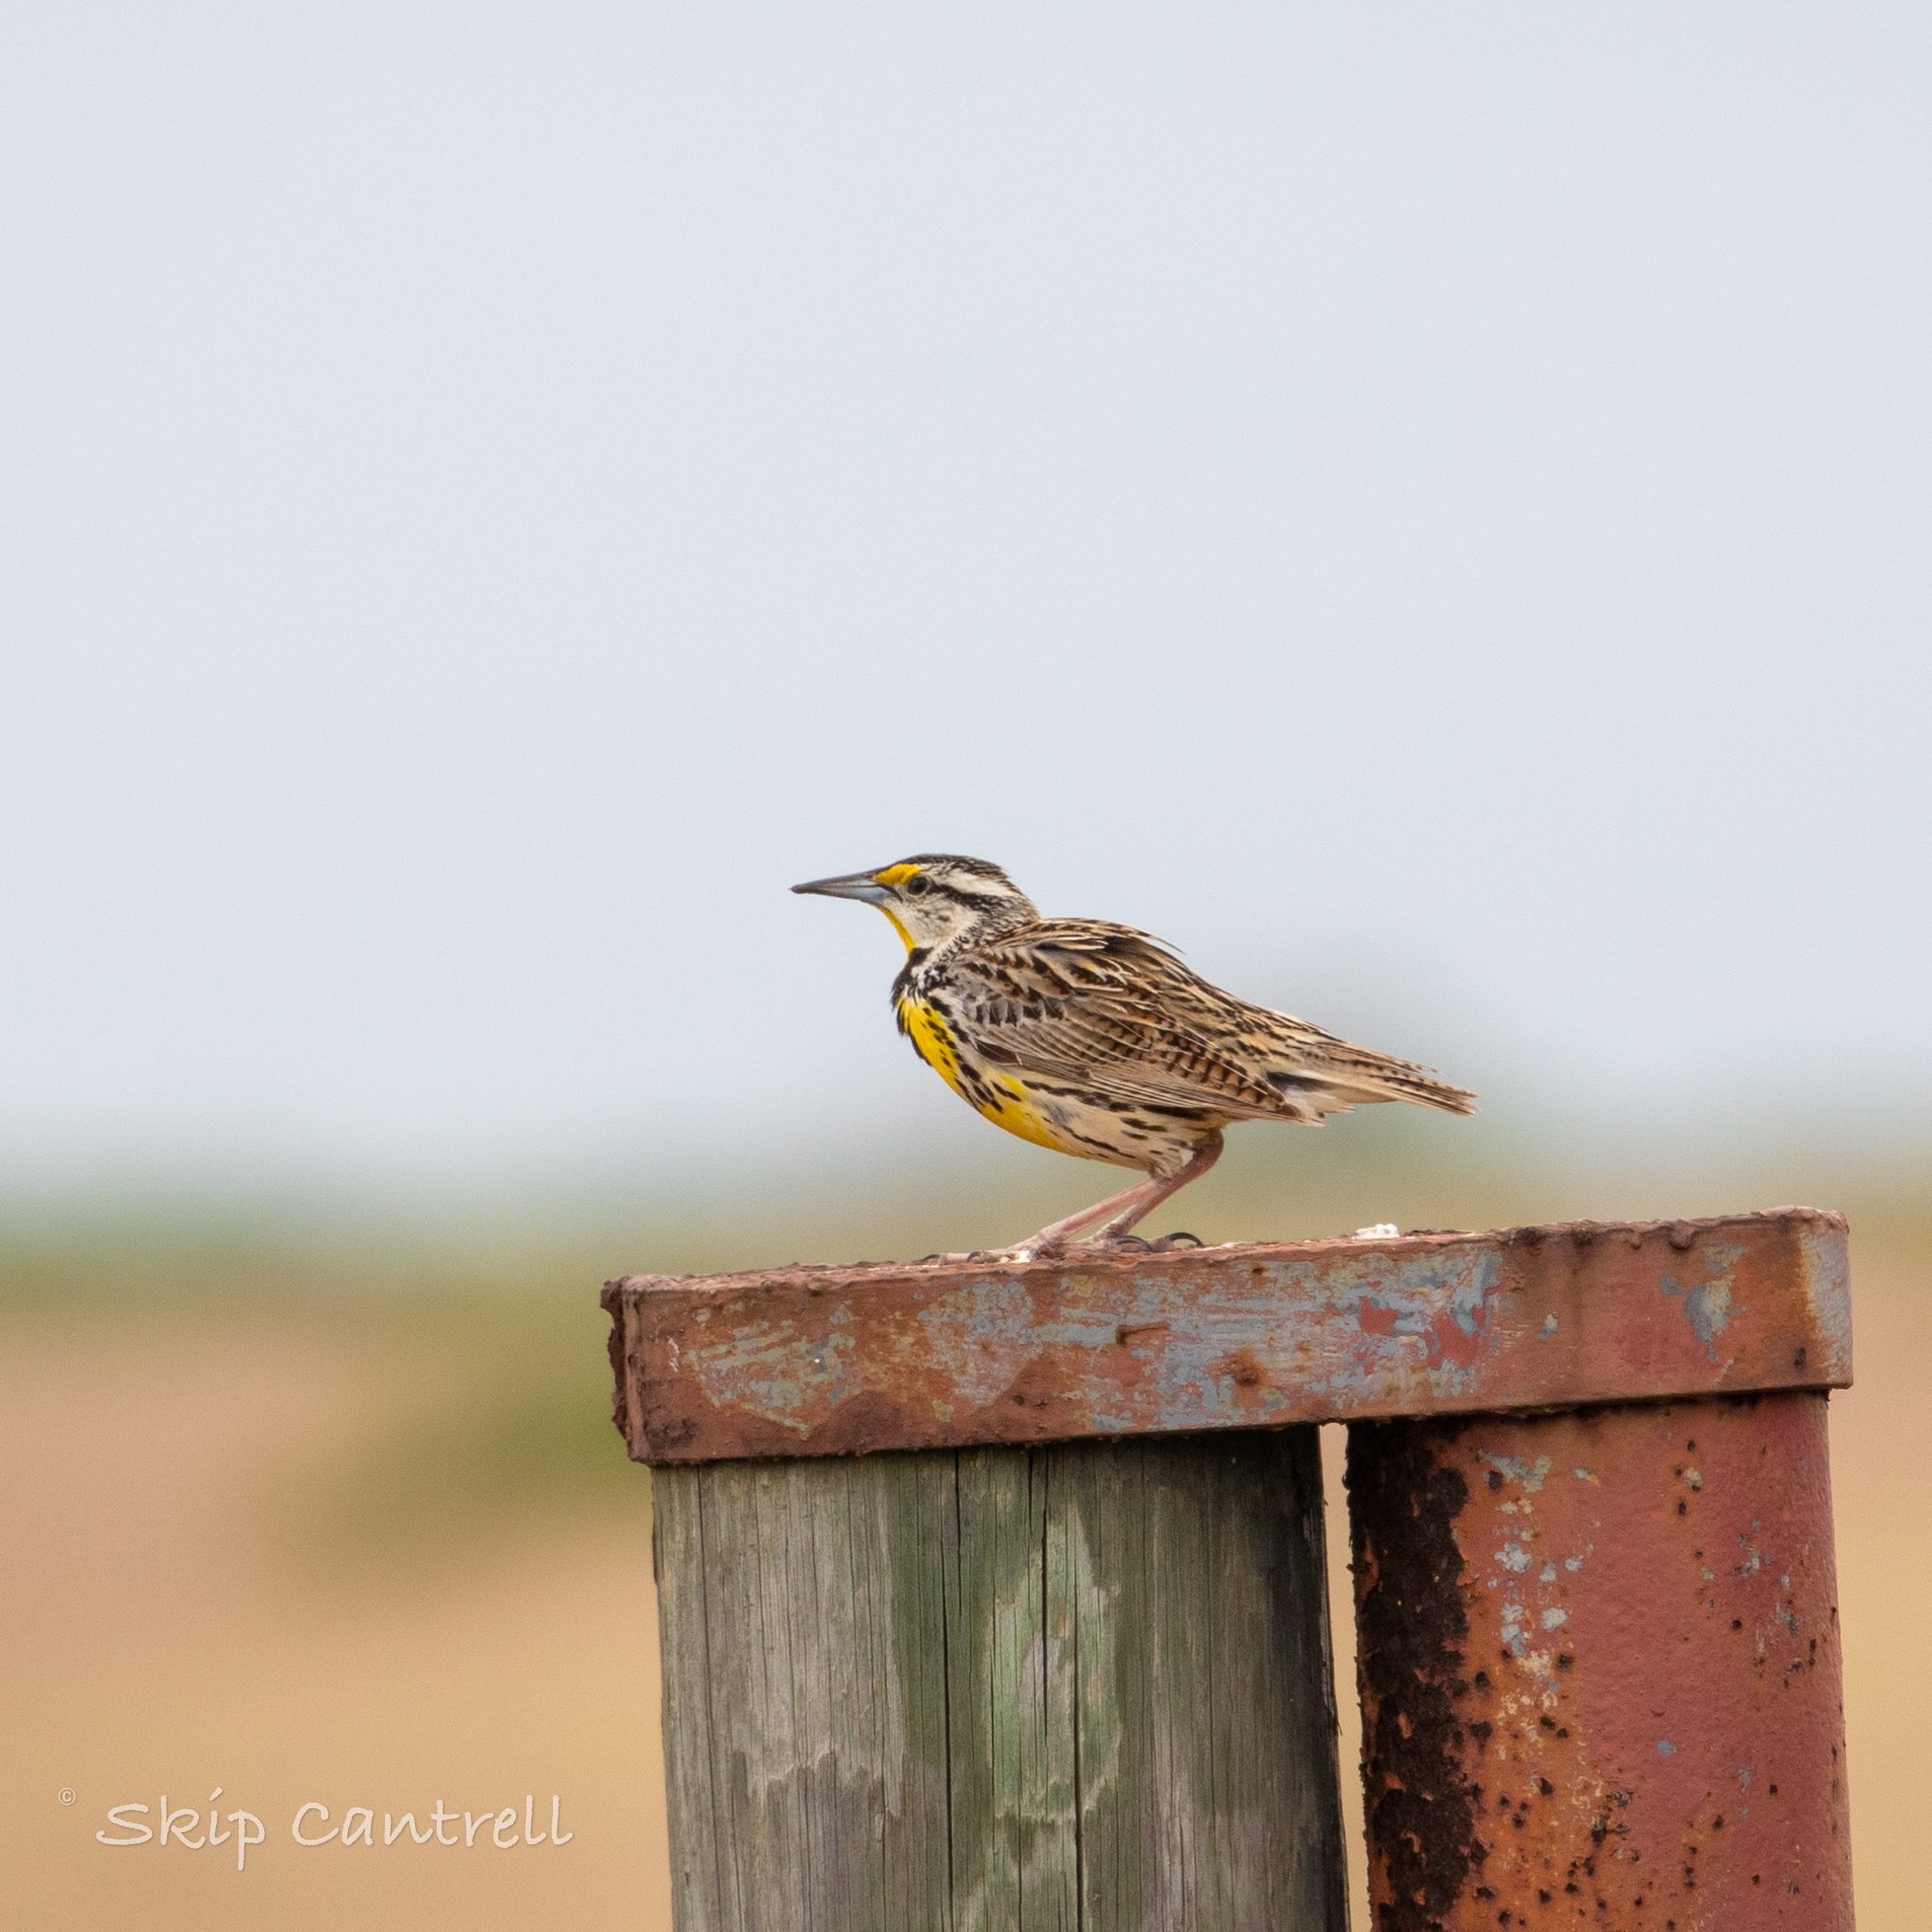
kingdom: Animalia
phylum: Chordata
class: Aves
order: Passeriformes
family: Icteridae
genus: Sturnella
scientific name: Sturnella magna
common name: Eastern meadowlark
